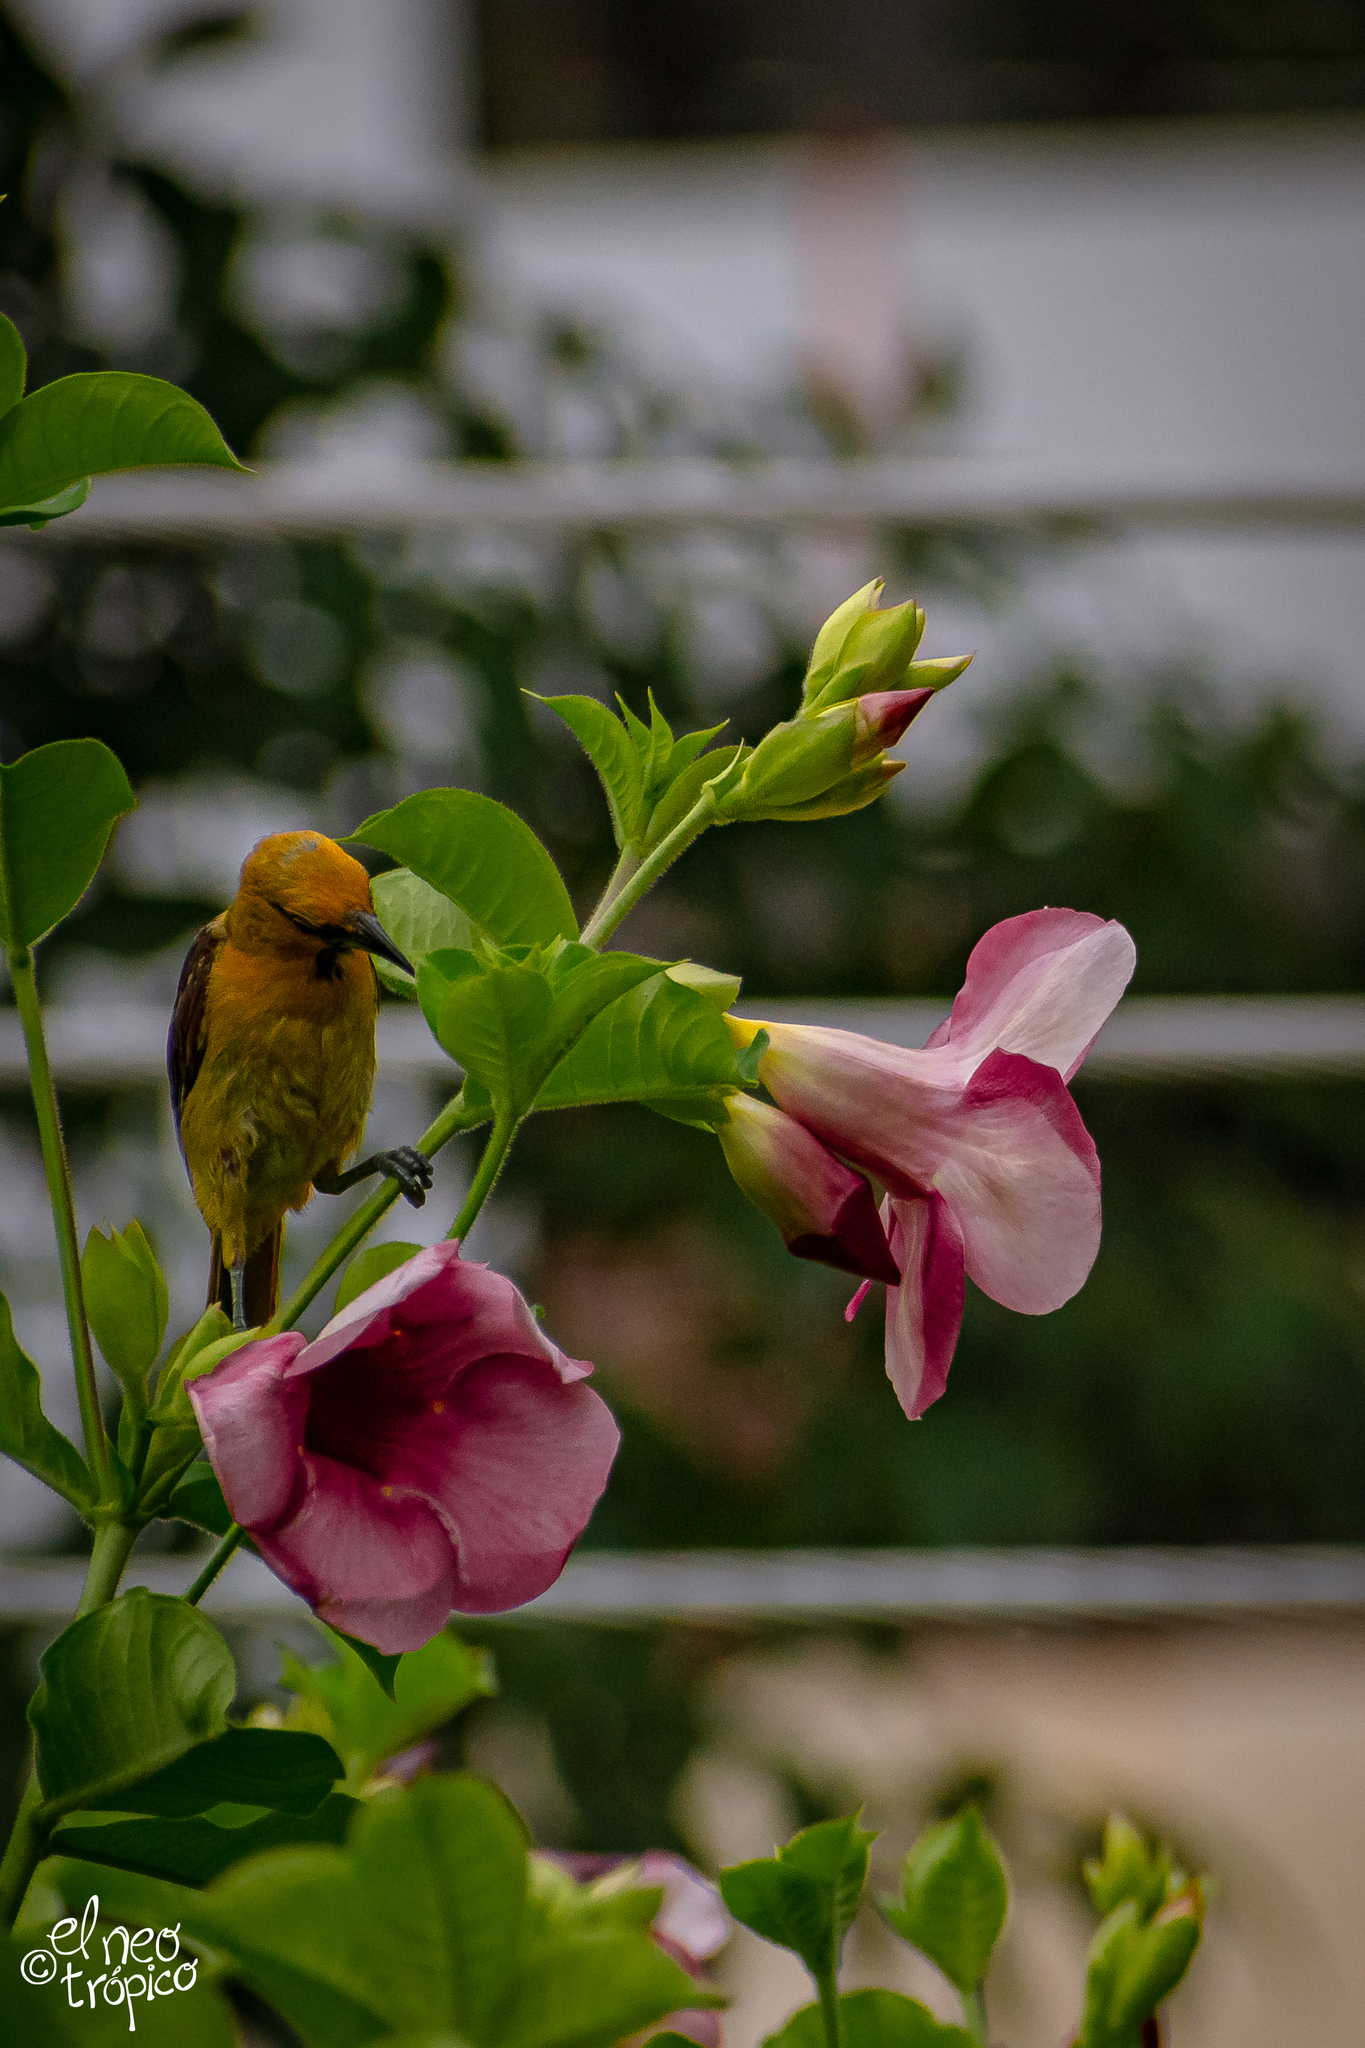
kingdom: Animalia
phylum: Chordata
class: Aves
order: Passeriformes
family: Icteridae
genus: Icterus
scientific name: Icterus pustulatus
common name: Streak-backed oriole
